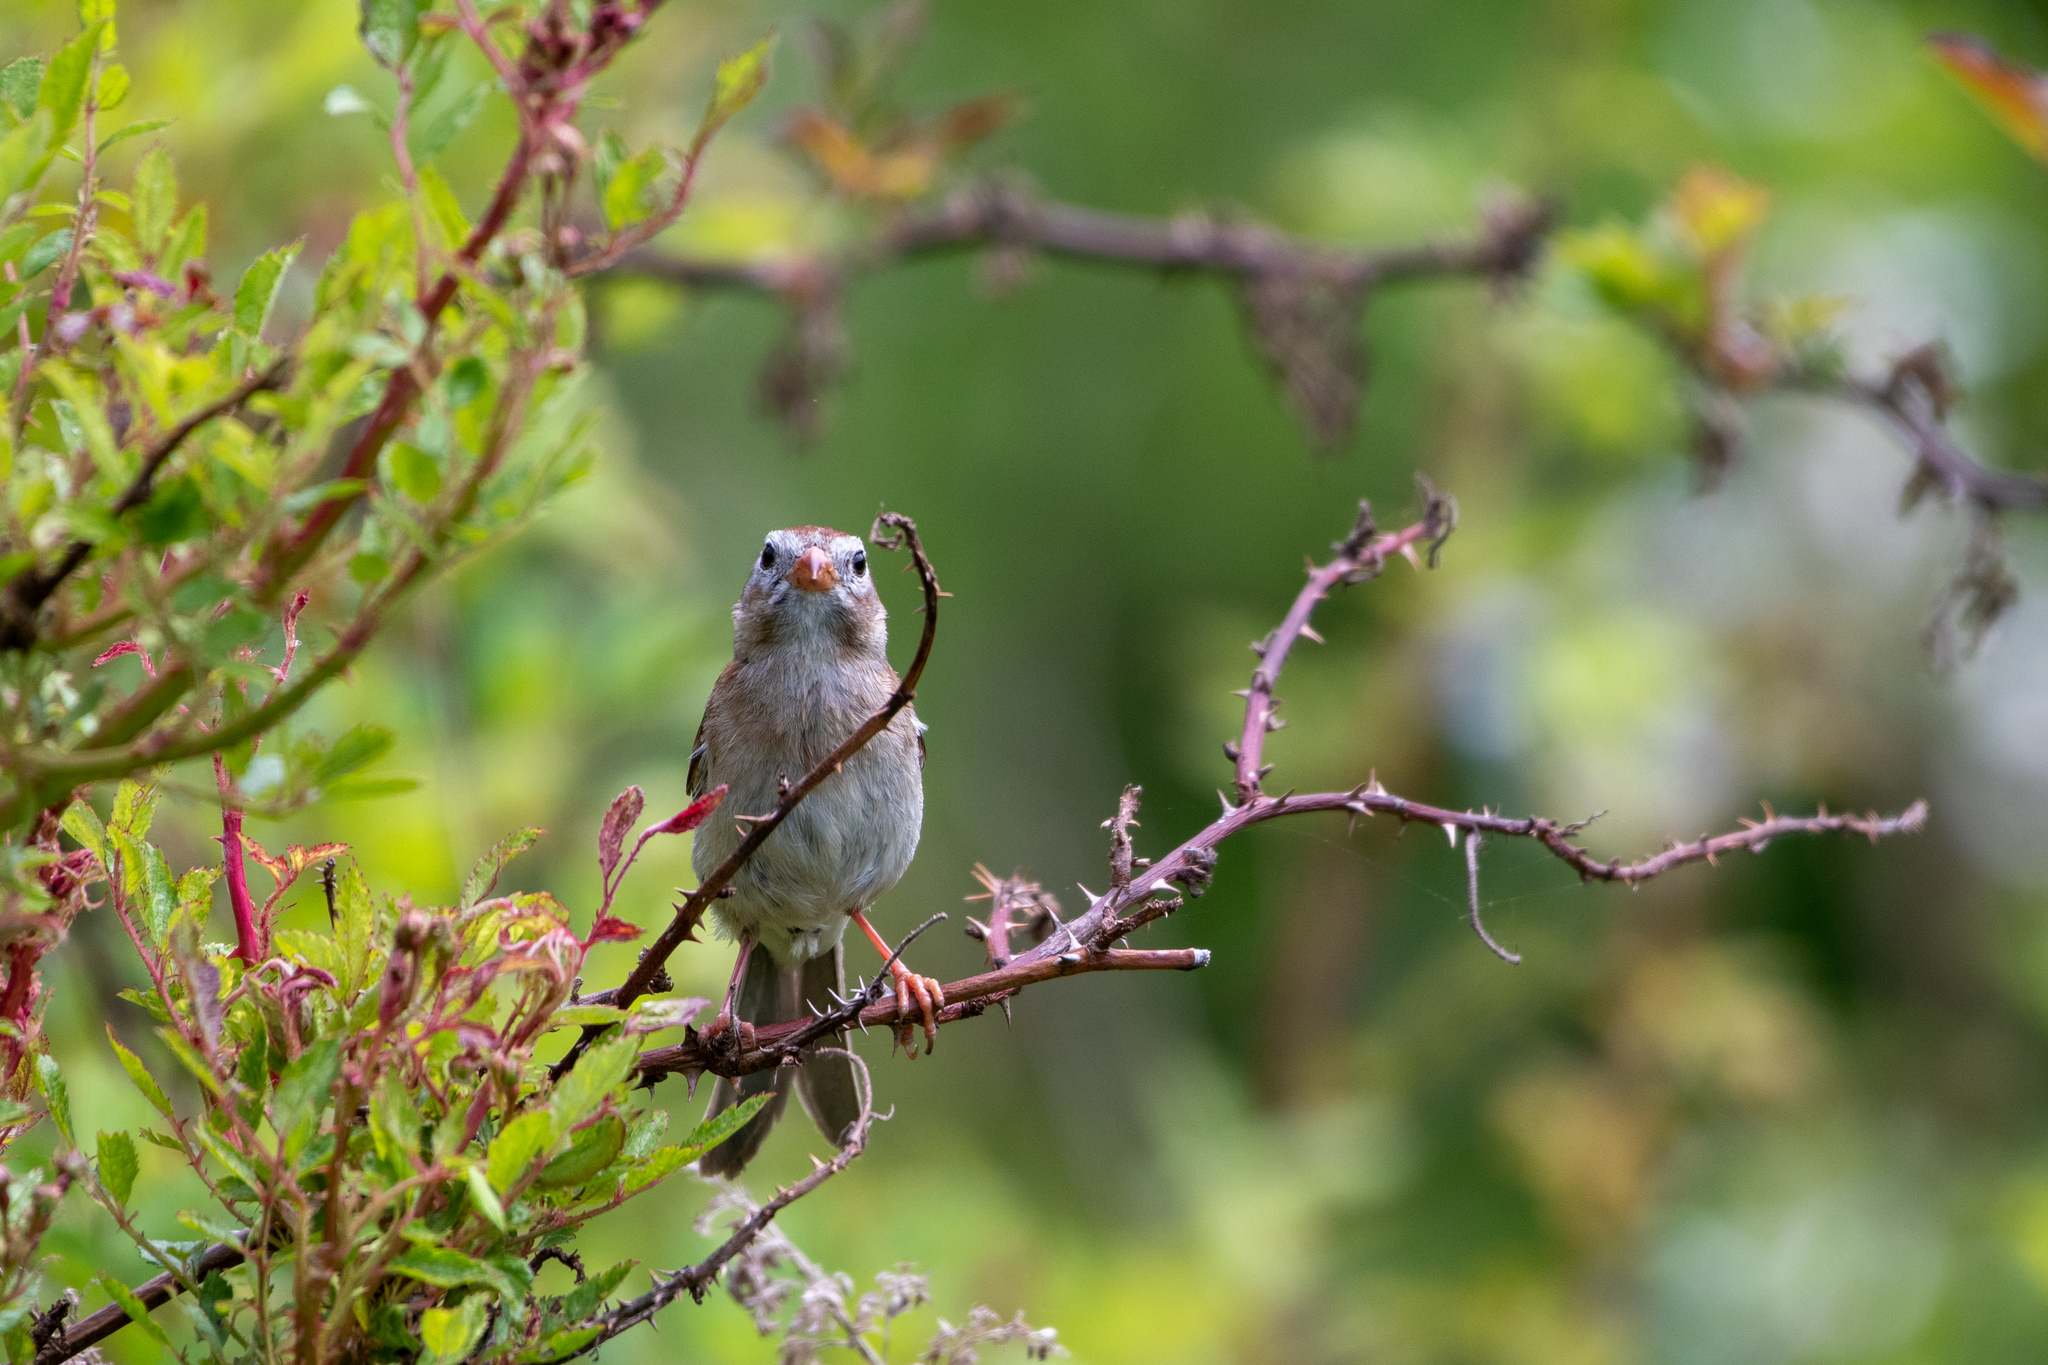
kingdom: Animalia
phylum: Chordata
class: Aves
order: Passeriformes
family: Passerellidae
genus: Spizella
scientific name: Spizella pusilla
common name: Field sparrow
